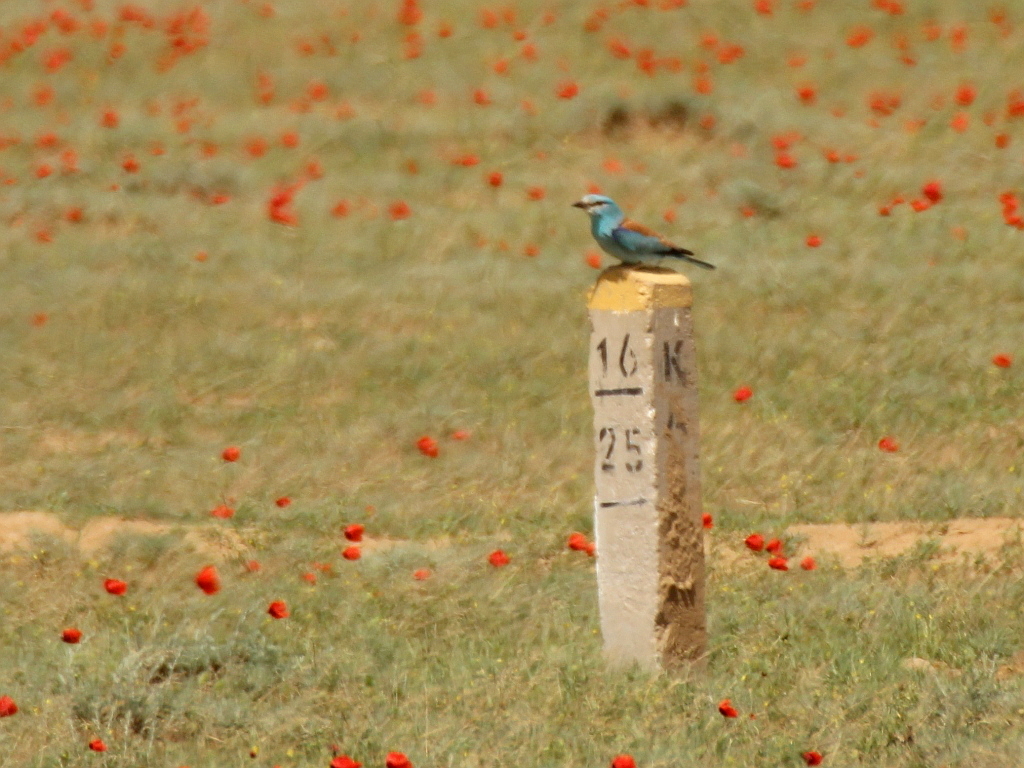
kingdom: Animalia
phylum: Chordata
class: Aves
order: Coraciiformes
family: Coraciidae
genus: Coracias
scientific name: Coracias garrulus
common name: European roller
